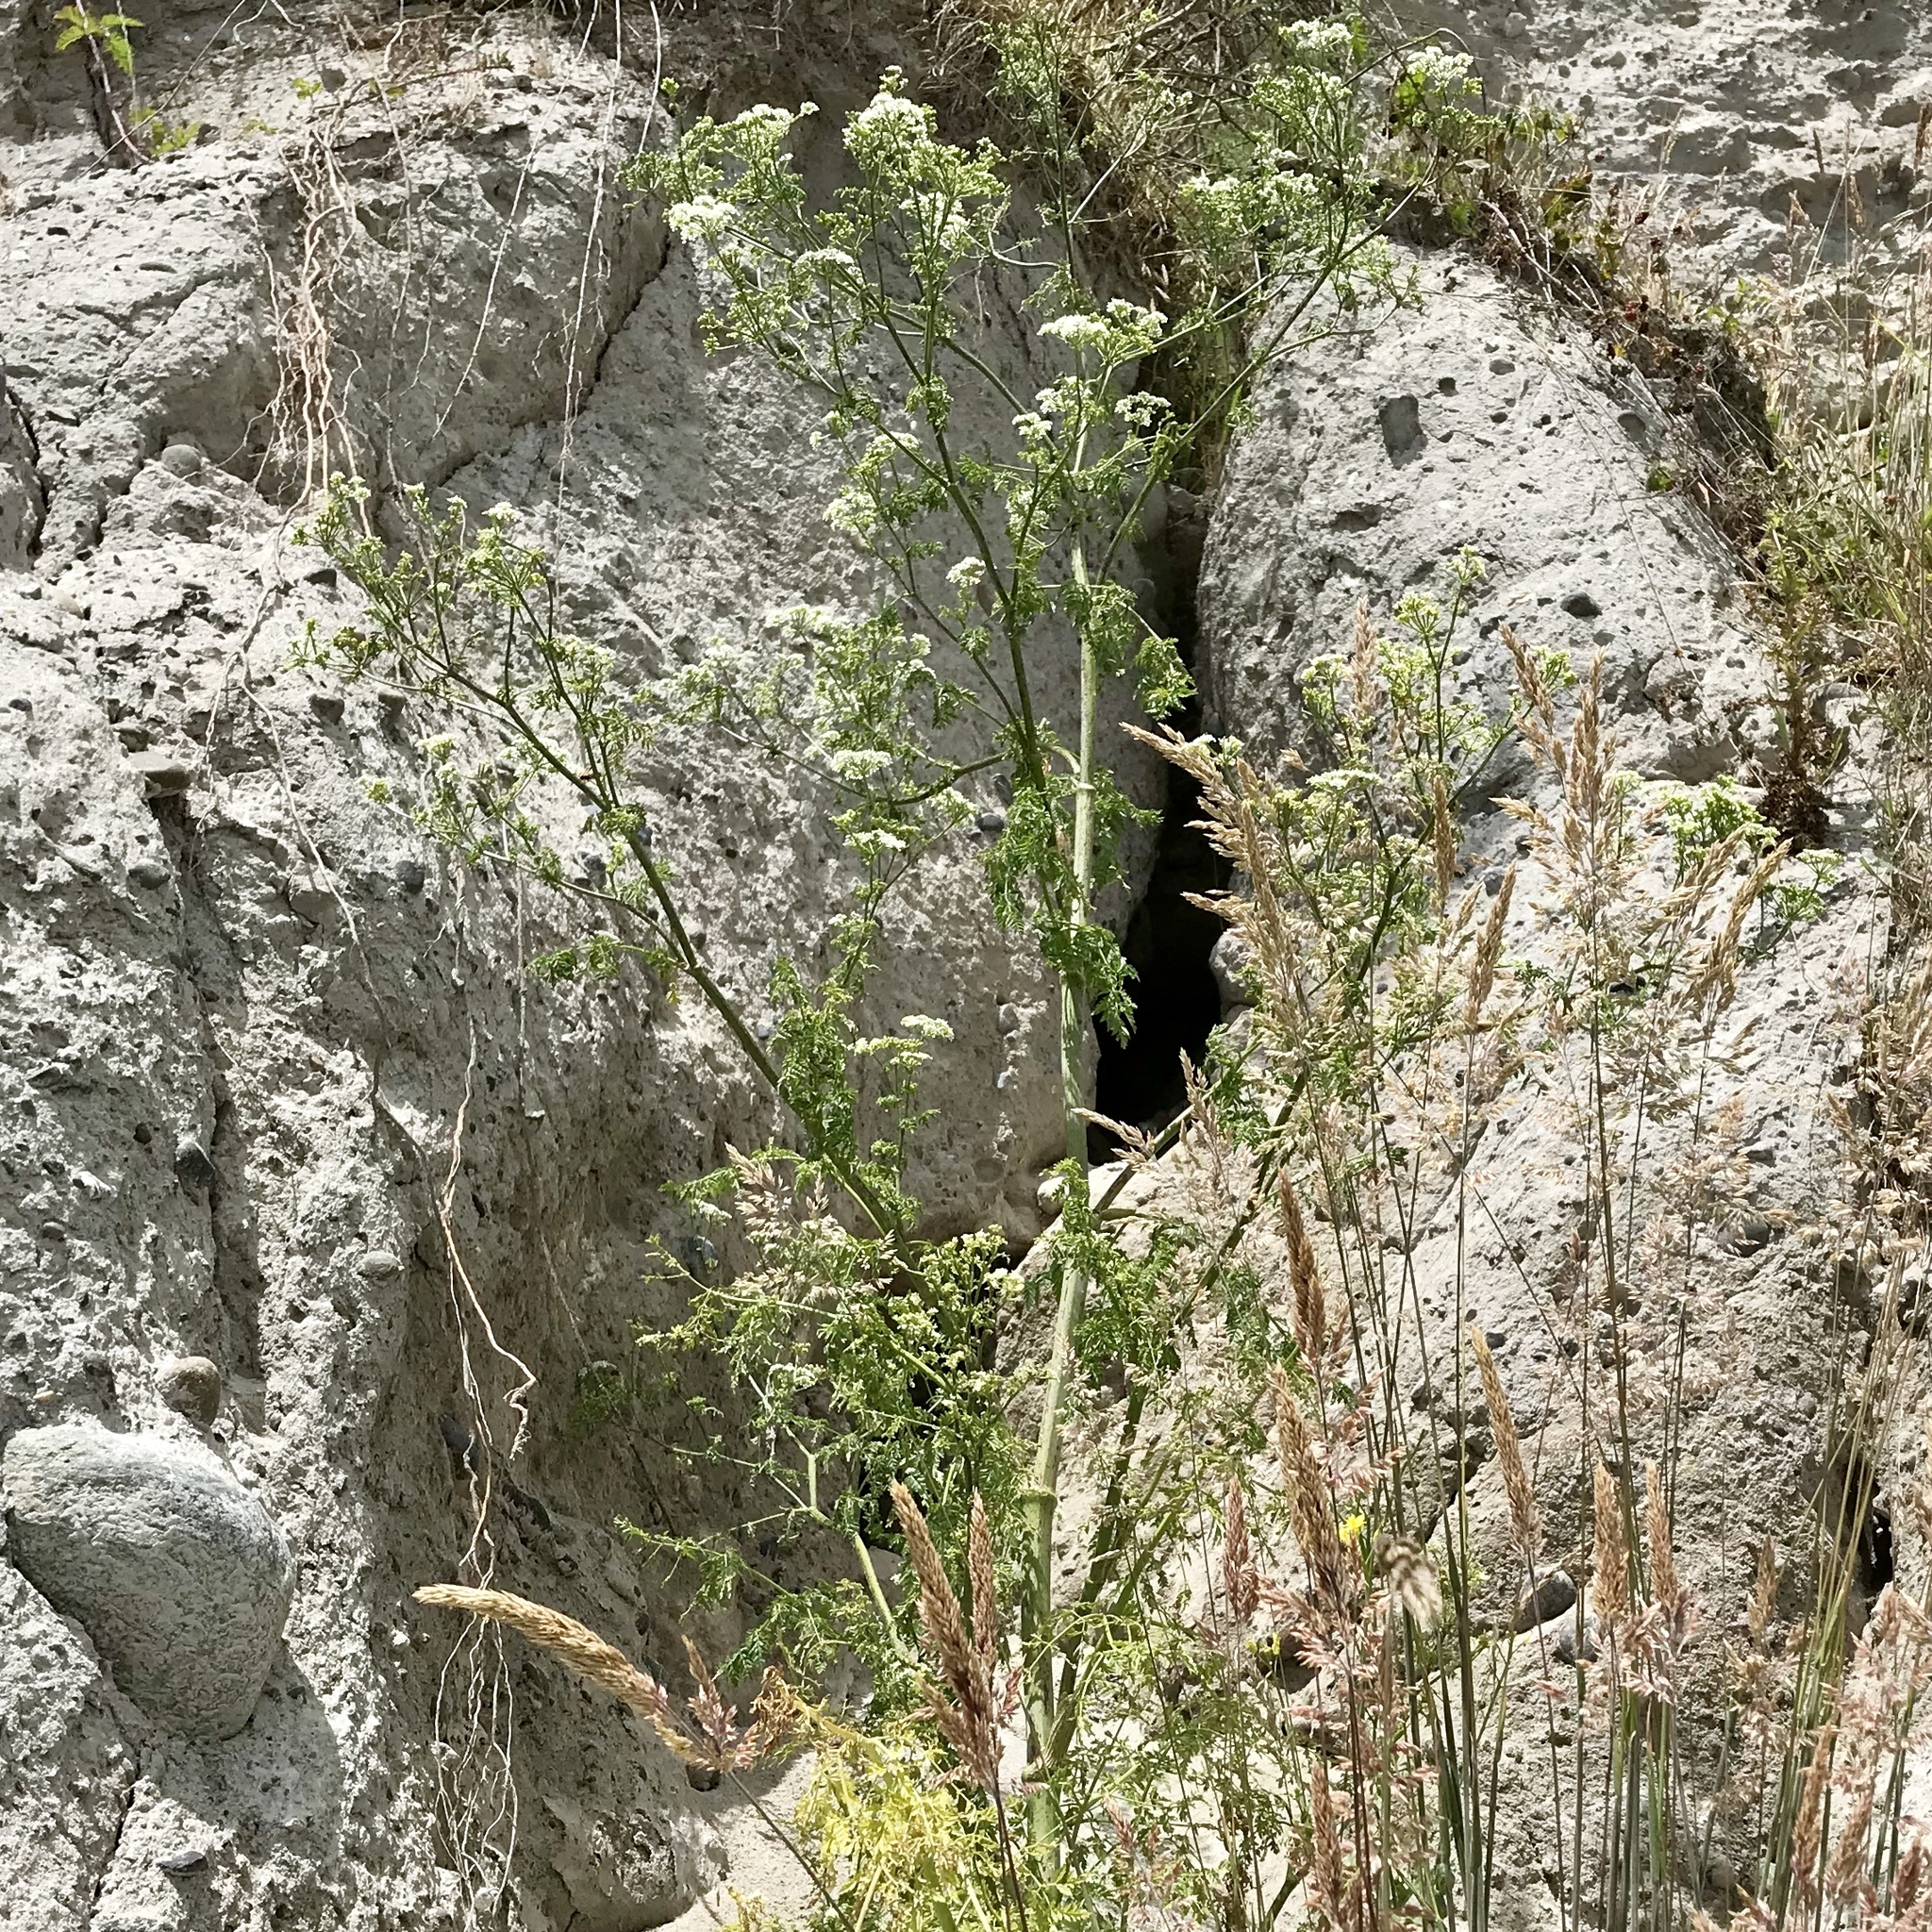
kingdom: Plantae
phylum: Tracheophyta
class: Magnoliopsida
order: Apiales
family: Apiaceae
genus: Daucus
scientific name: Daucus carota
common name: Wild carrot
